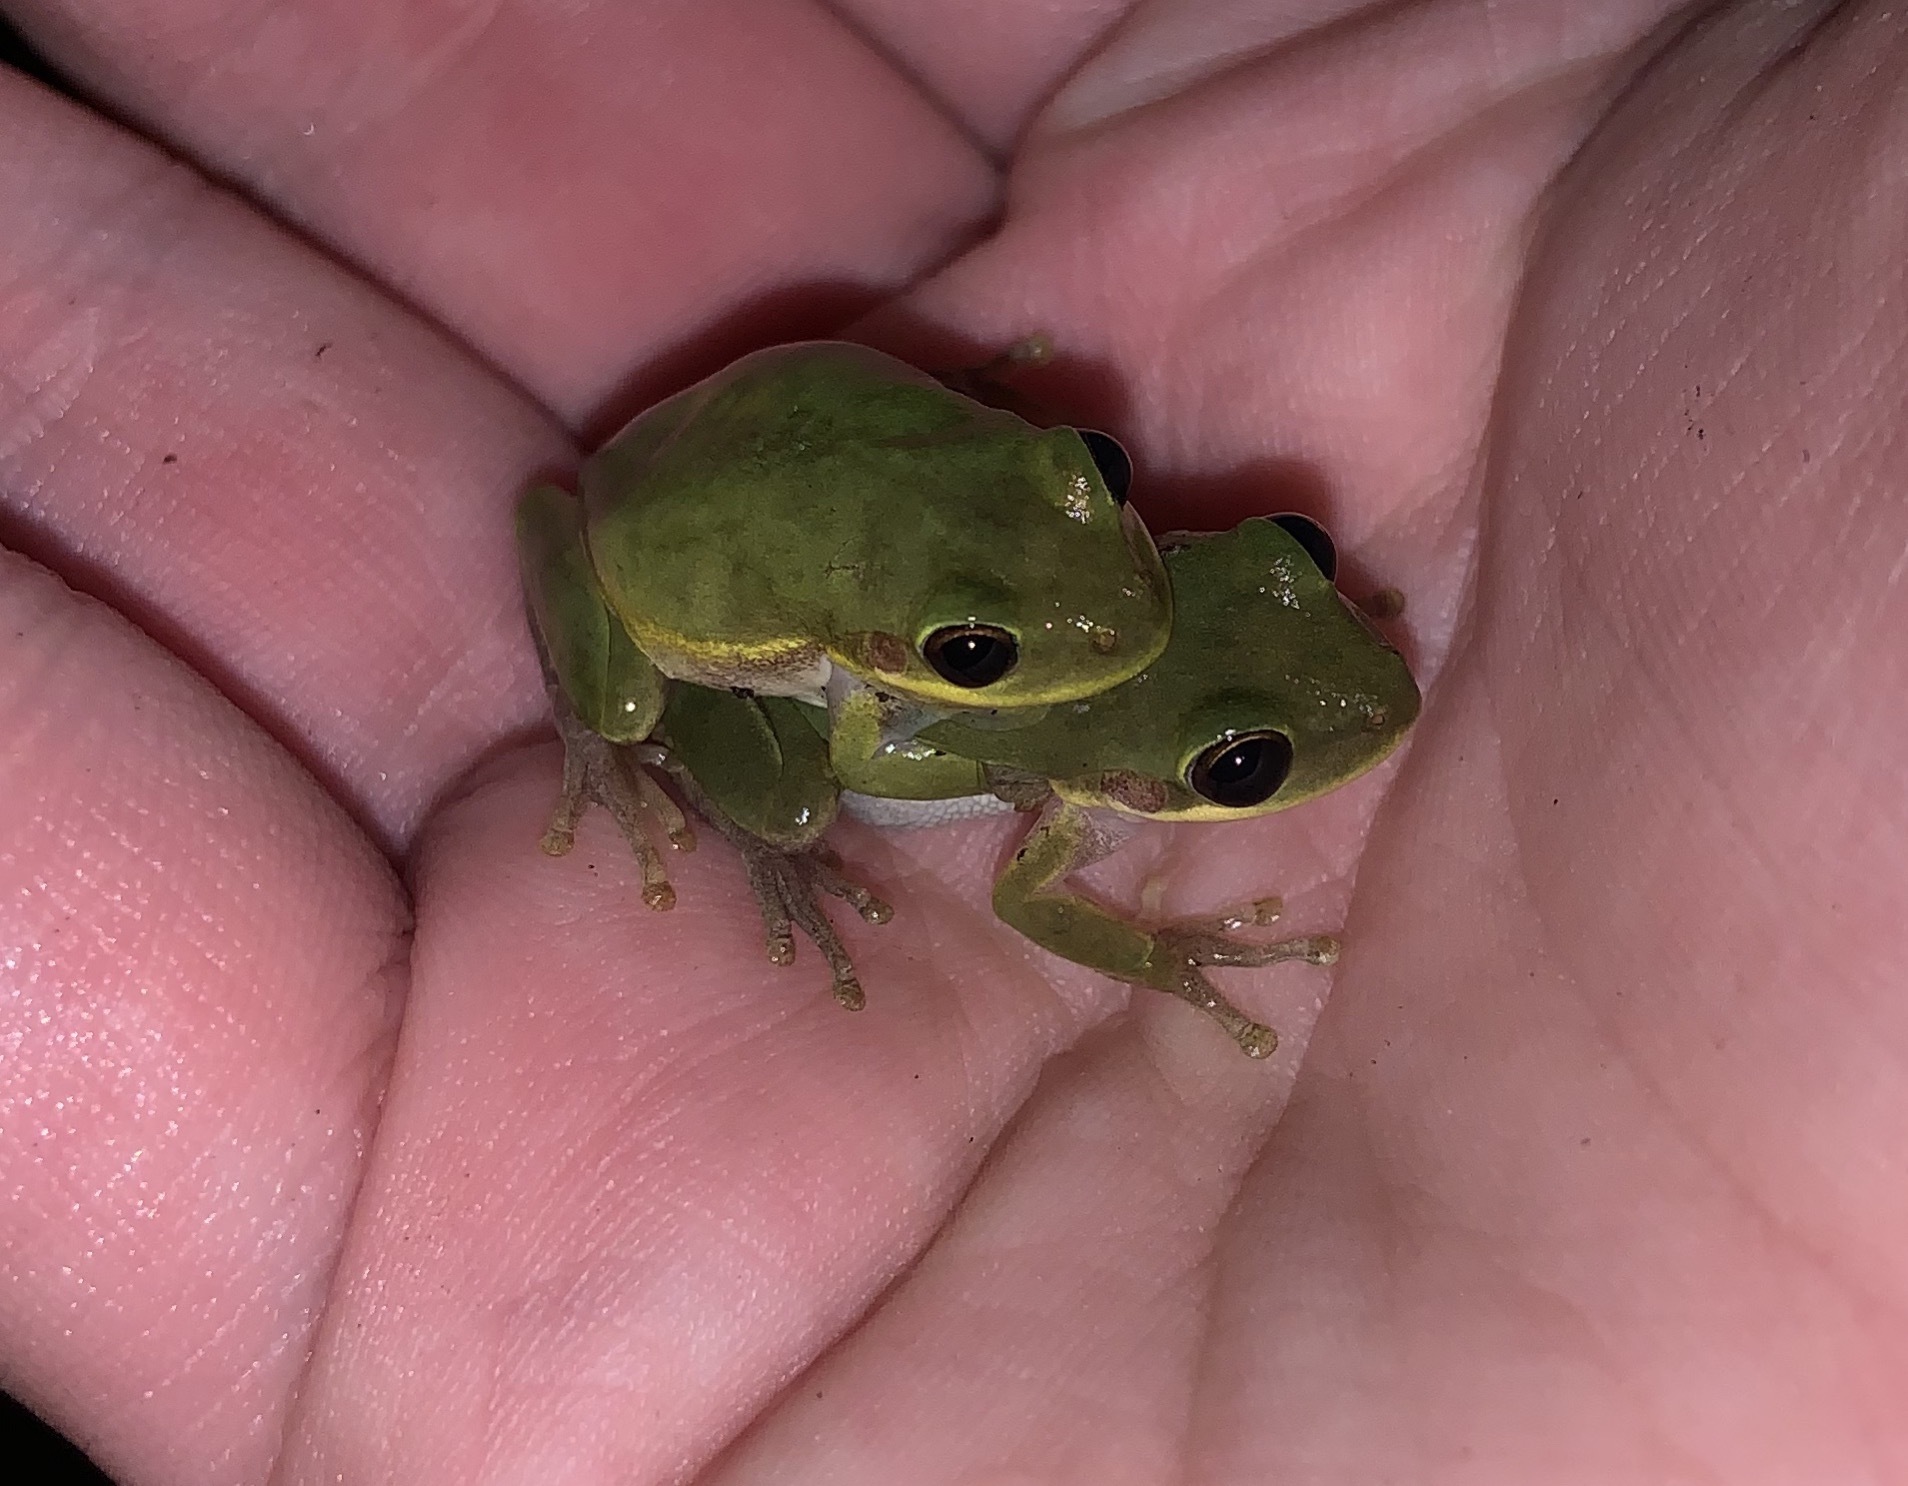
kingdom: Animalia
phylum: Chordata
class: Amphibia
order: Anura
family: Hylidae
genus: Dryophytes
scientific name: Dryophytes squirellus
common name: Squirrel treefrog
